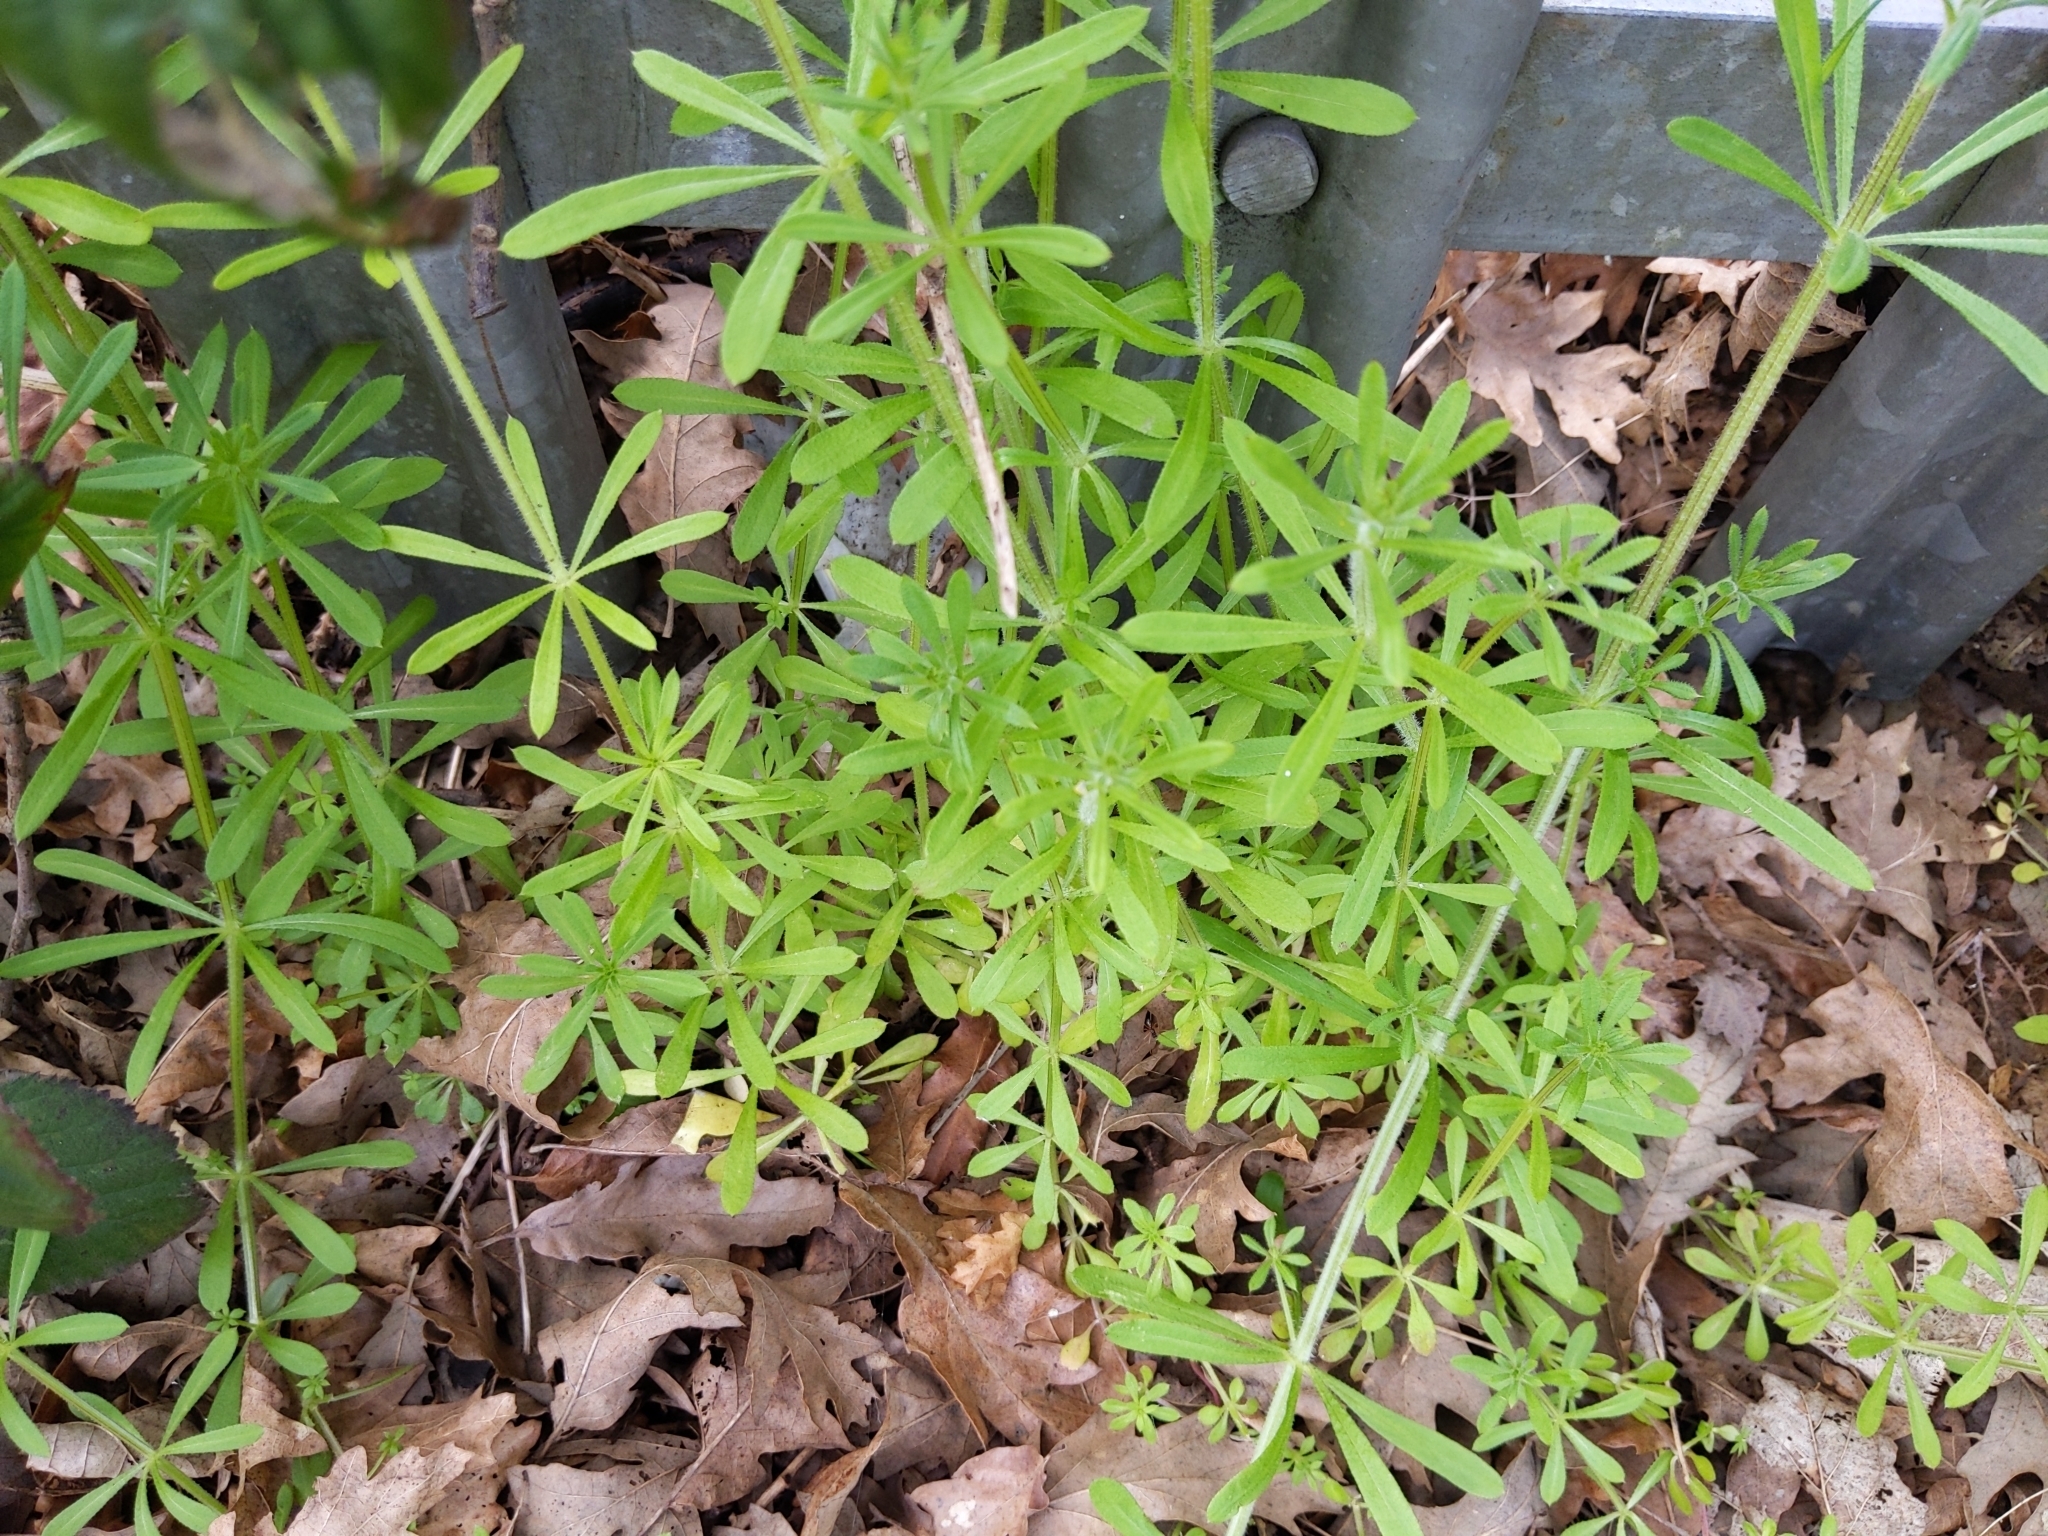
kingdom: Plantae
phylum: Tracheophyta
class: Magnoliopsida
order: Gentianales
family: Rubiaceae
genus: Galium
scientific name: Galium aparine
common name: Cleavers
